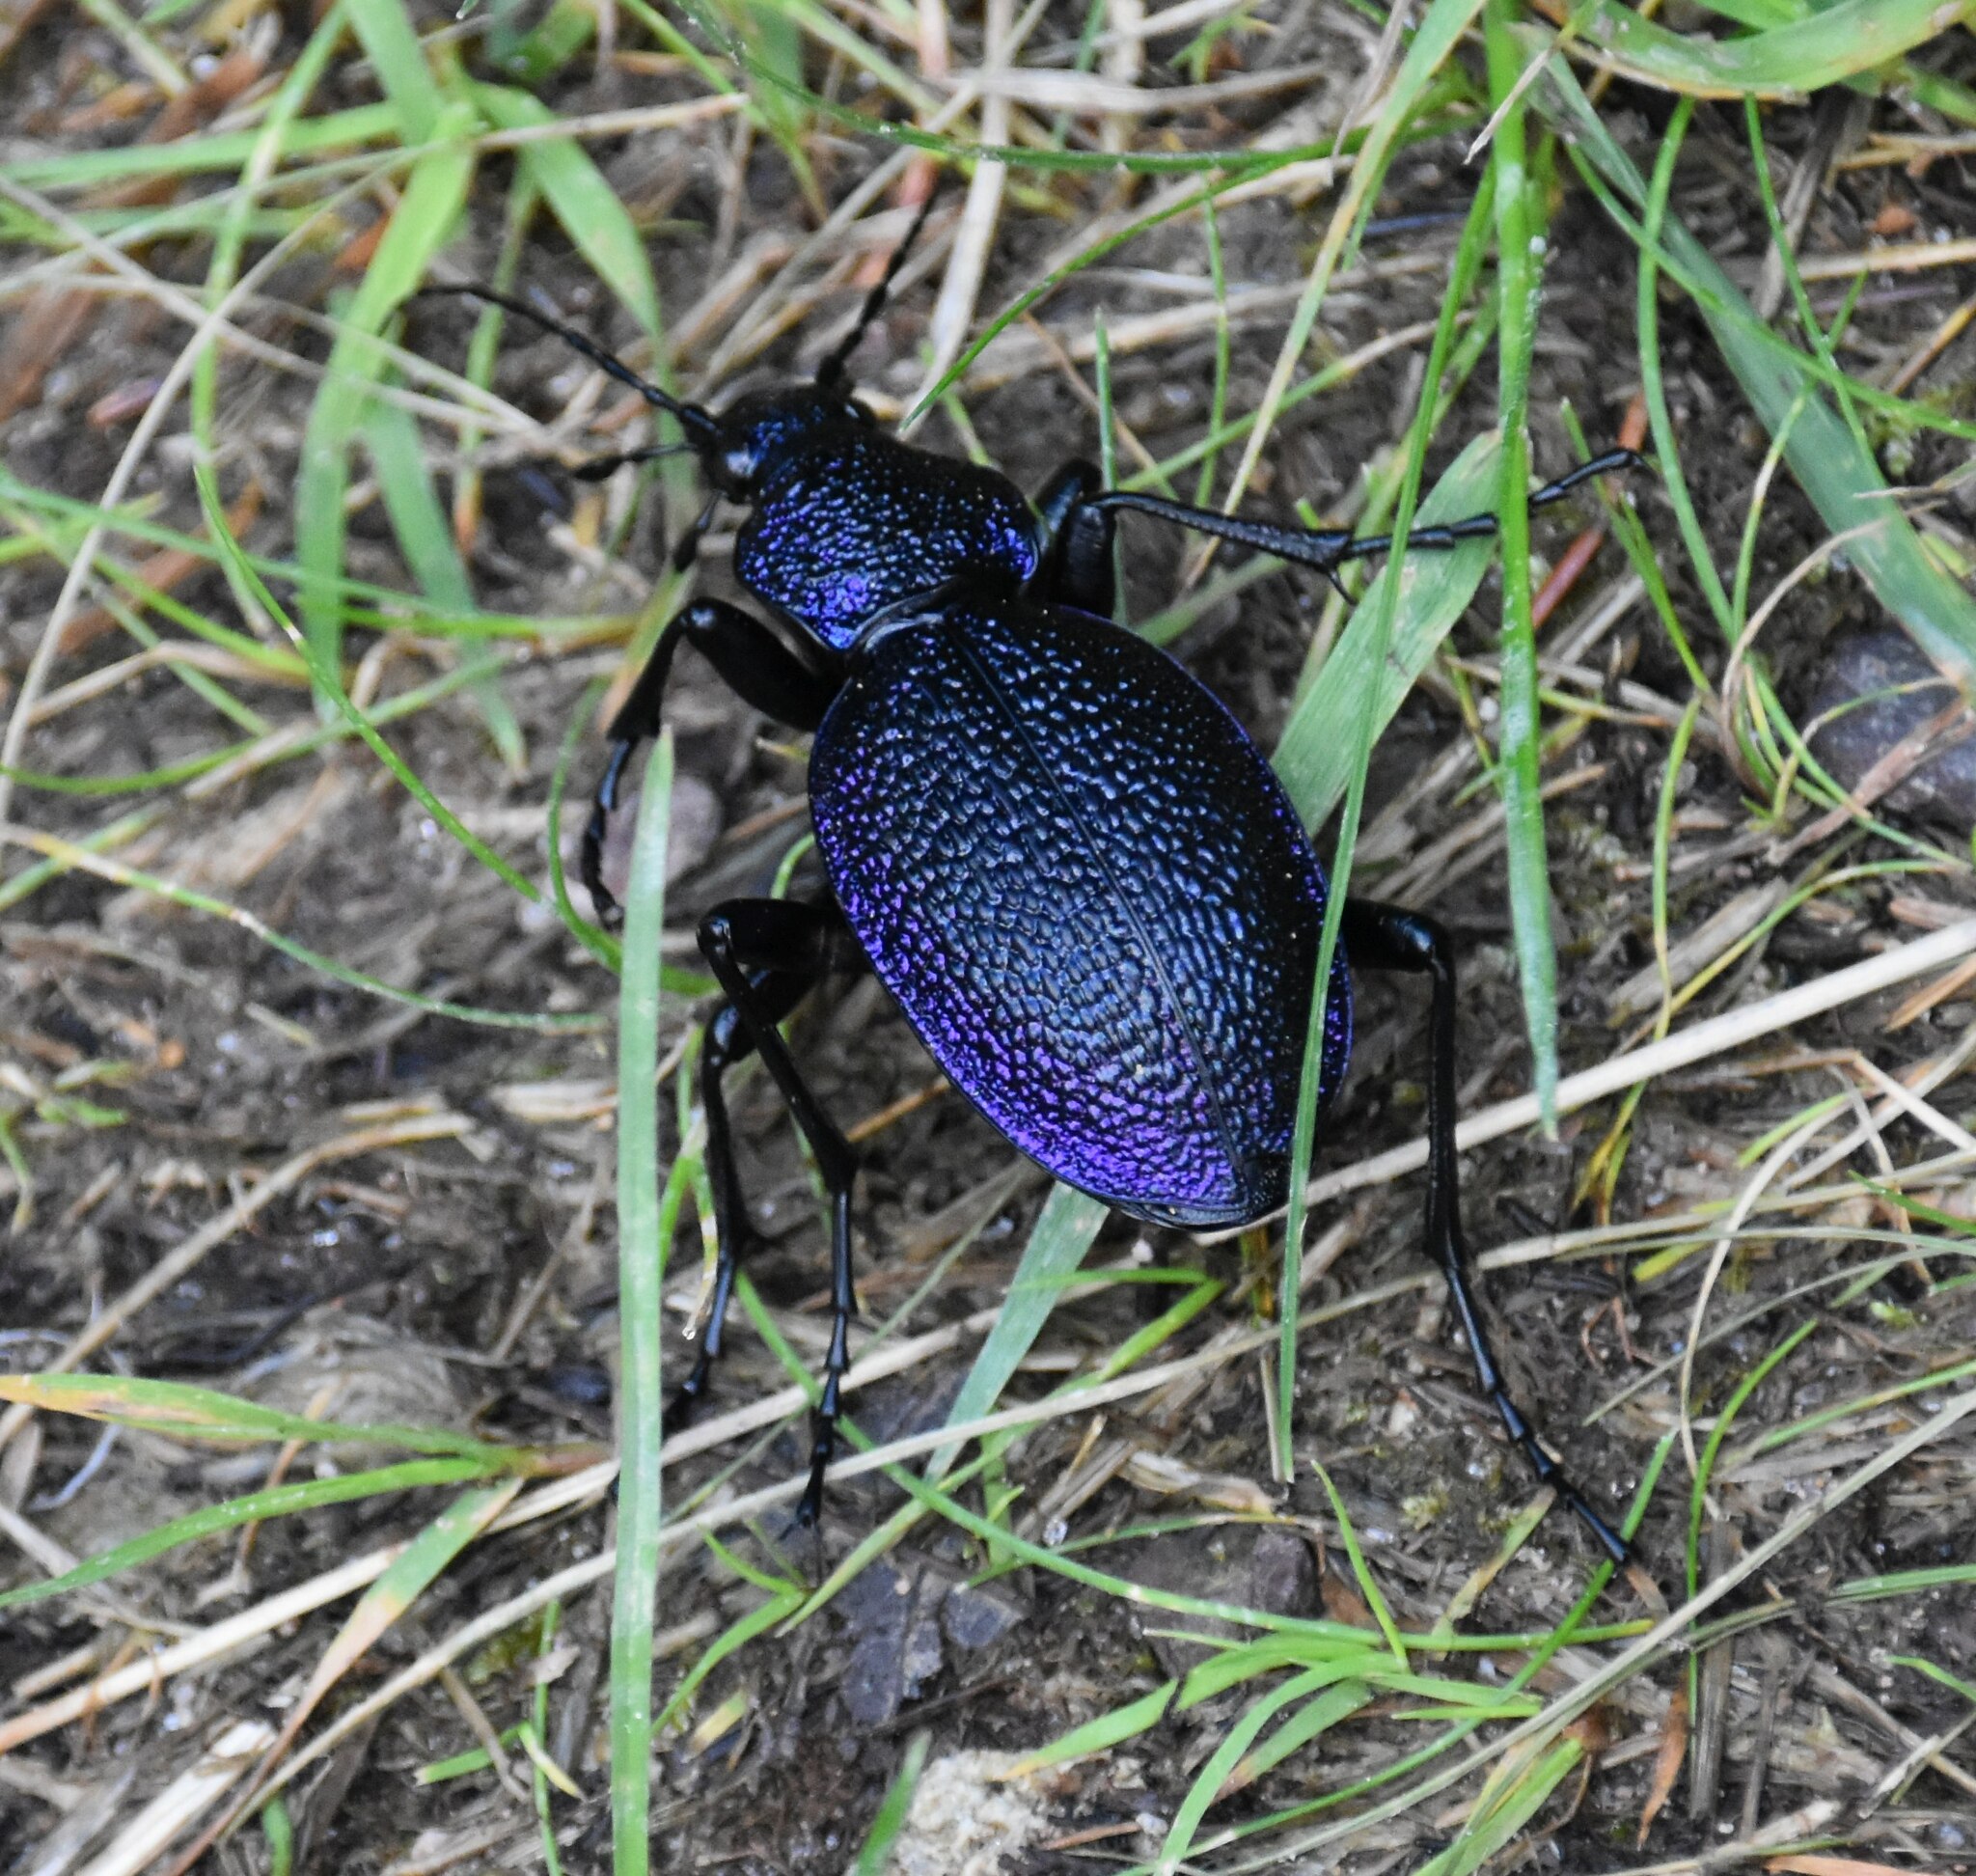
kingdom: Animalia
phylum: Arthropoda
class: Insecta
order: Coleoptera
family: Carabidae
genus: Carabus
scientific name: Carabus scabrosus
